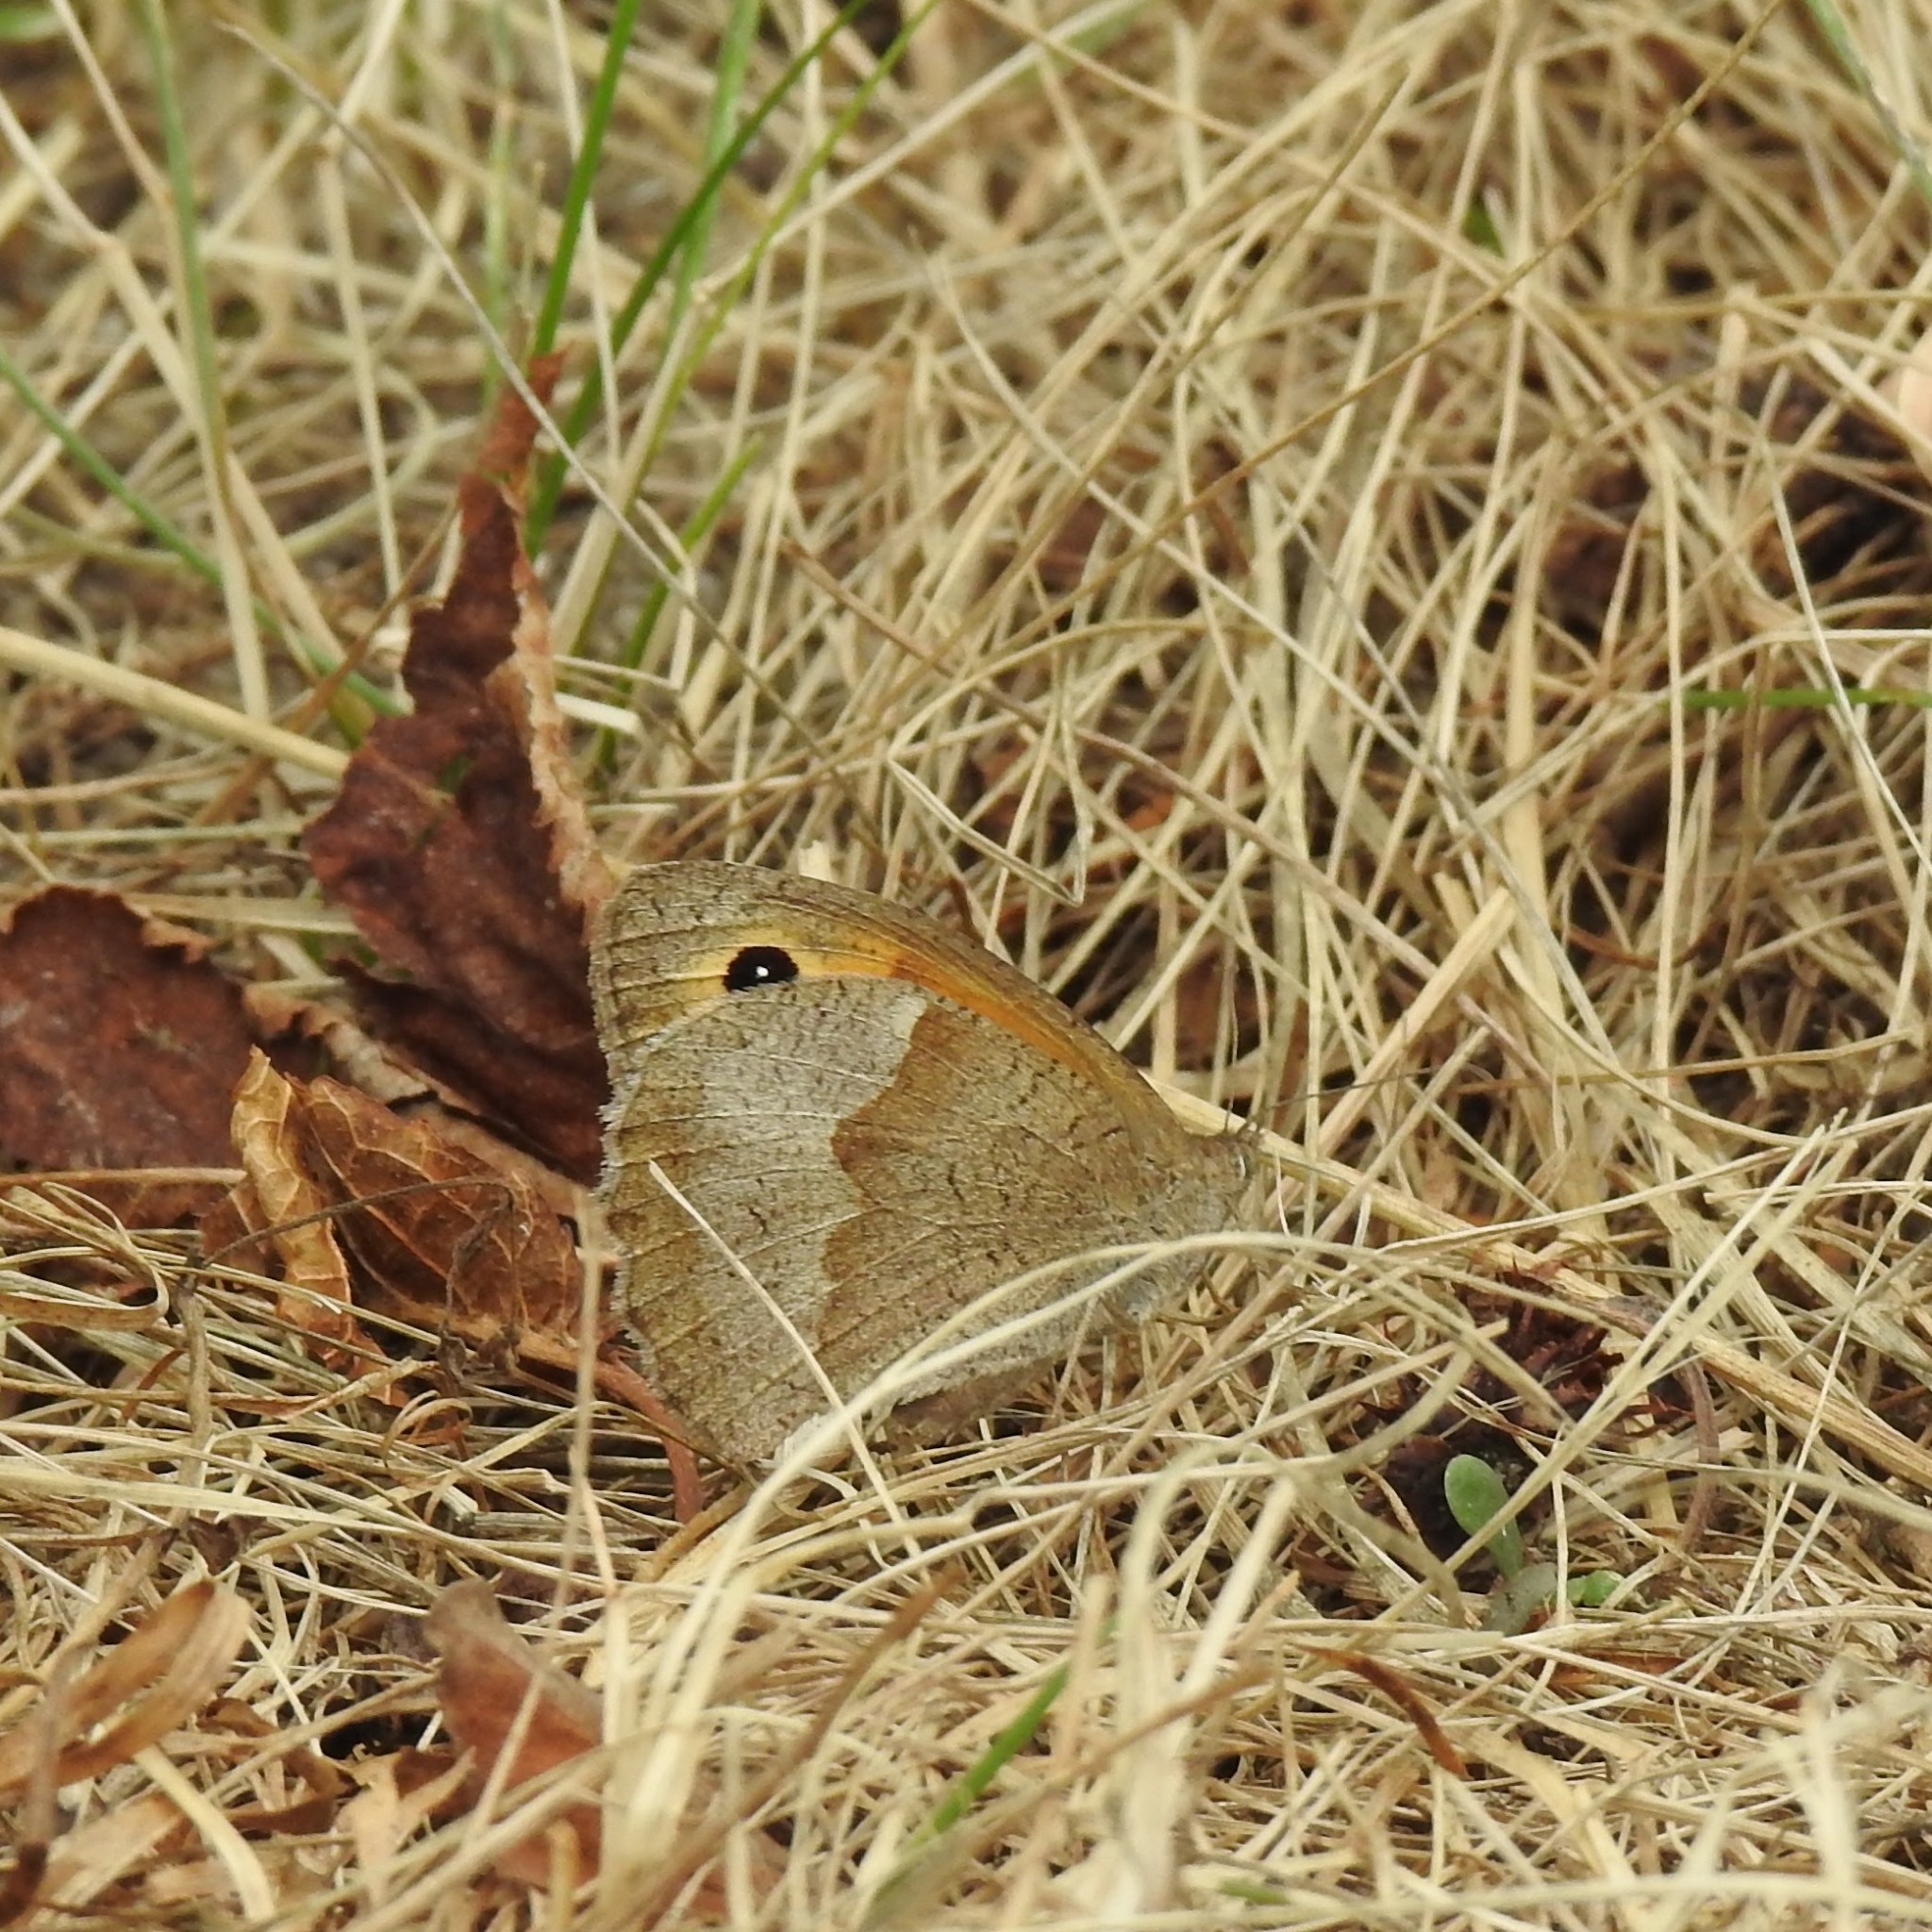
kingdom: Animalia
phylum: Arthropoda
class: Insecta
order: Lepidoptera
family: Nymphalidae
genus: Maniola
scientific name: Maniola jurtina
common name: Meadow brown
